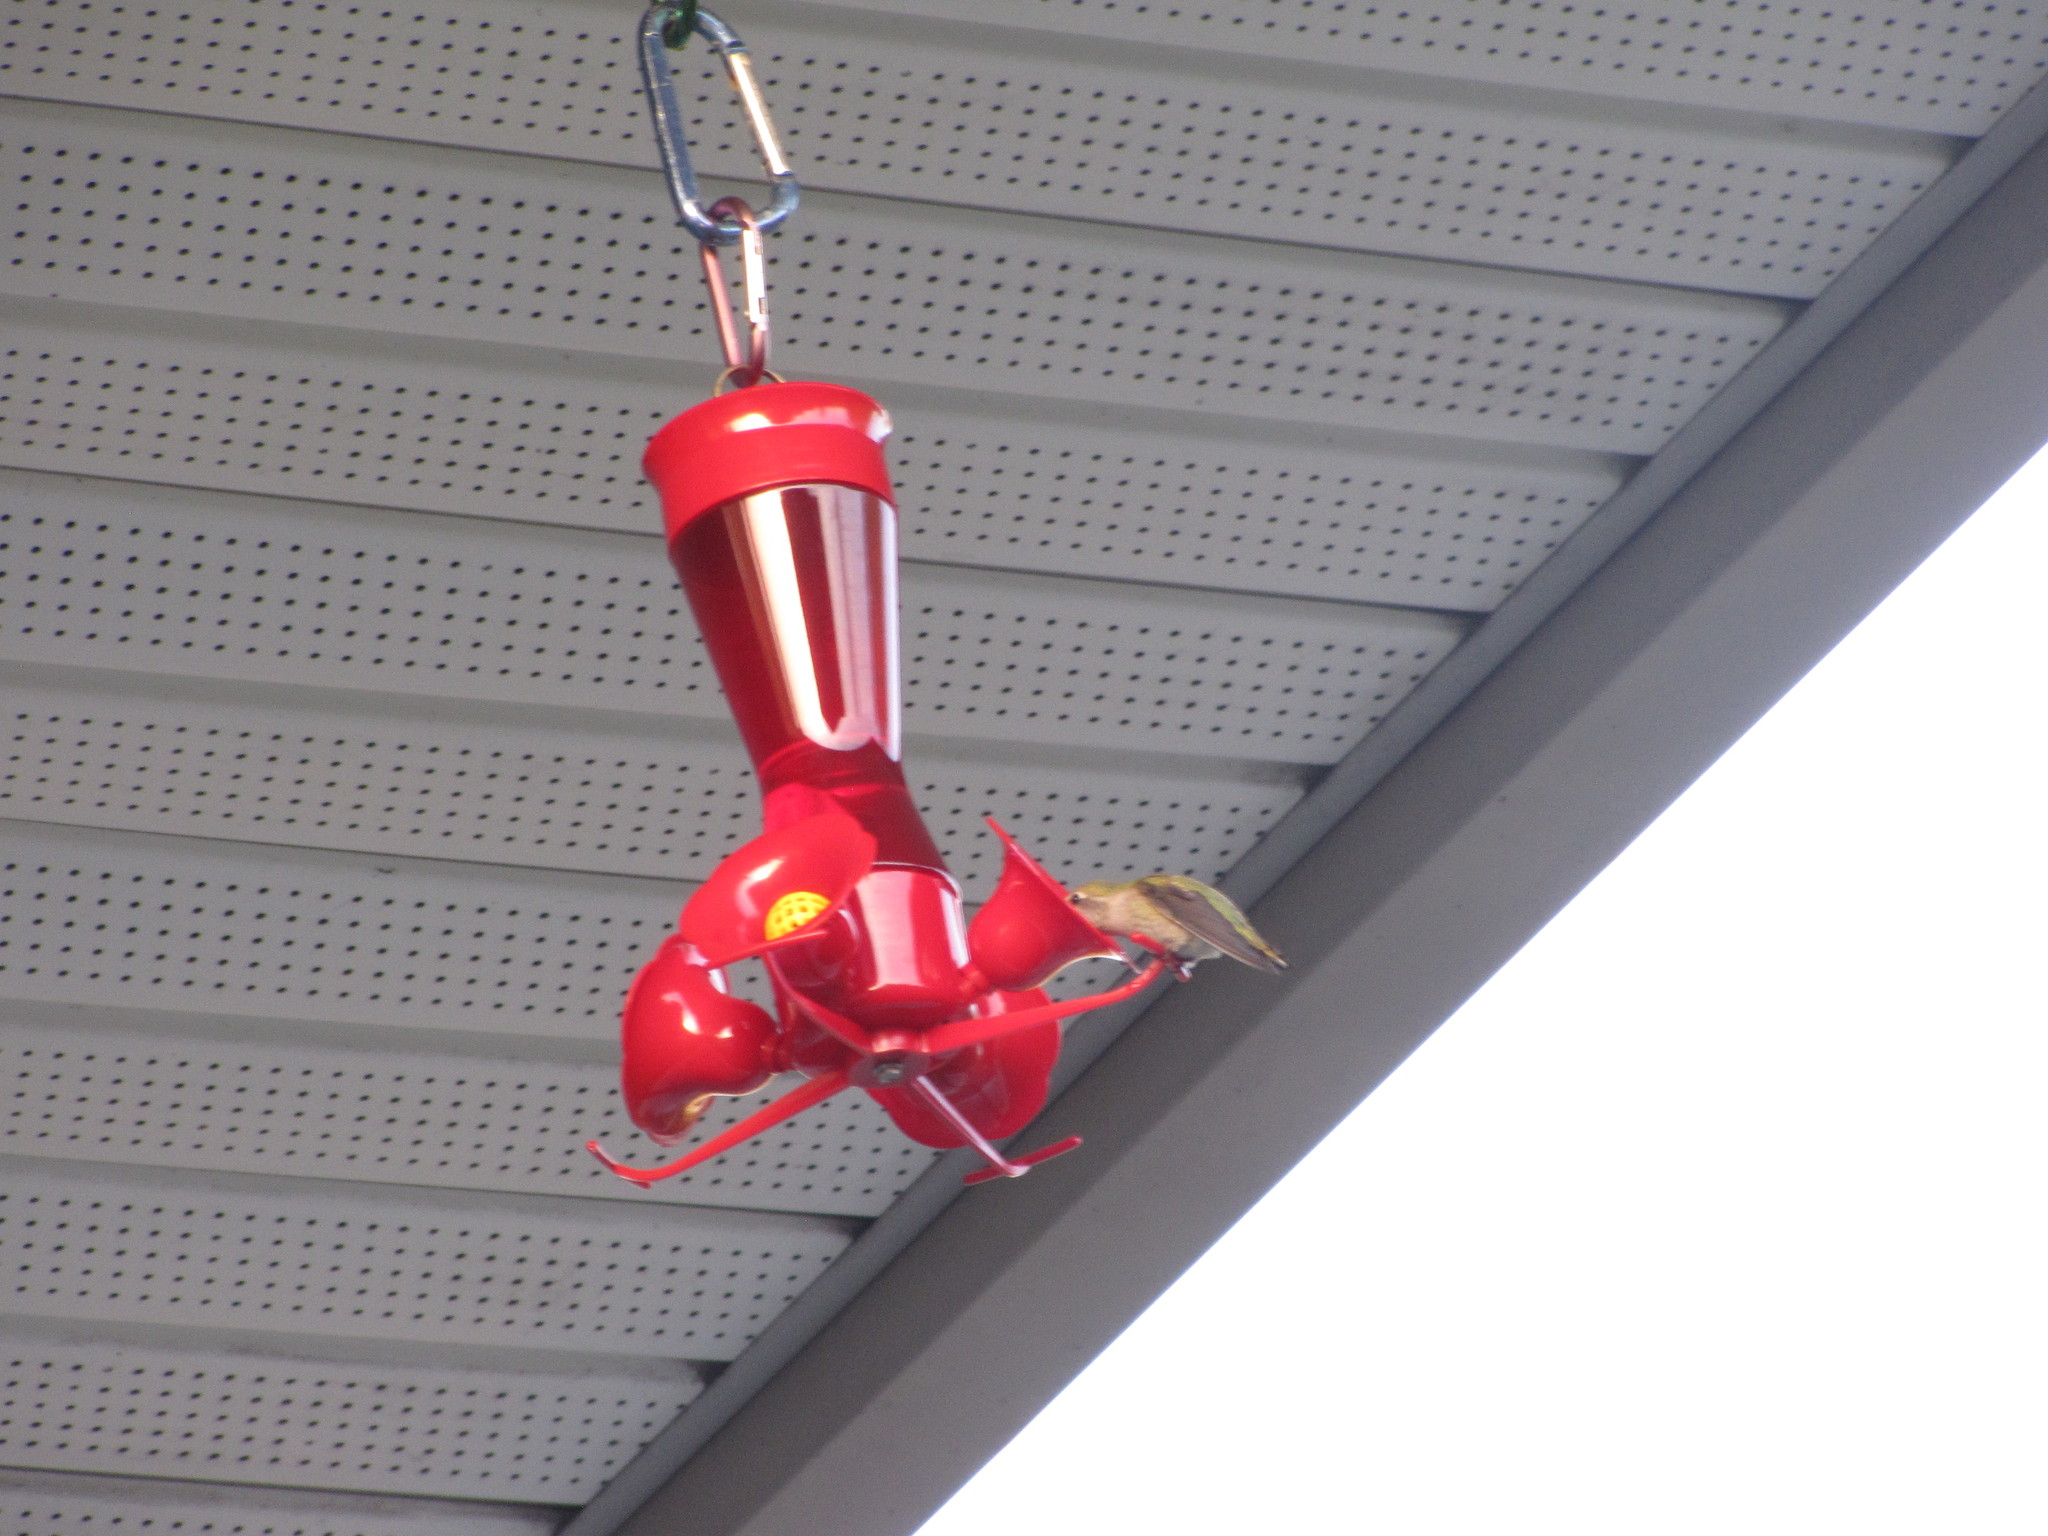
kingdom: Animalia
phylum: Chordata
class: Aves
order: Apodiformes
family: Trochilidae
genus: Calypte
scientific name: Calypte anna
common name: Anna's hummingbird
